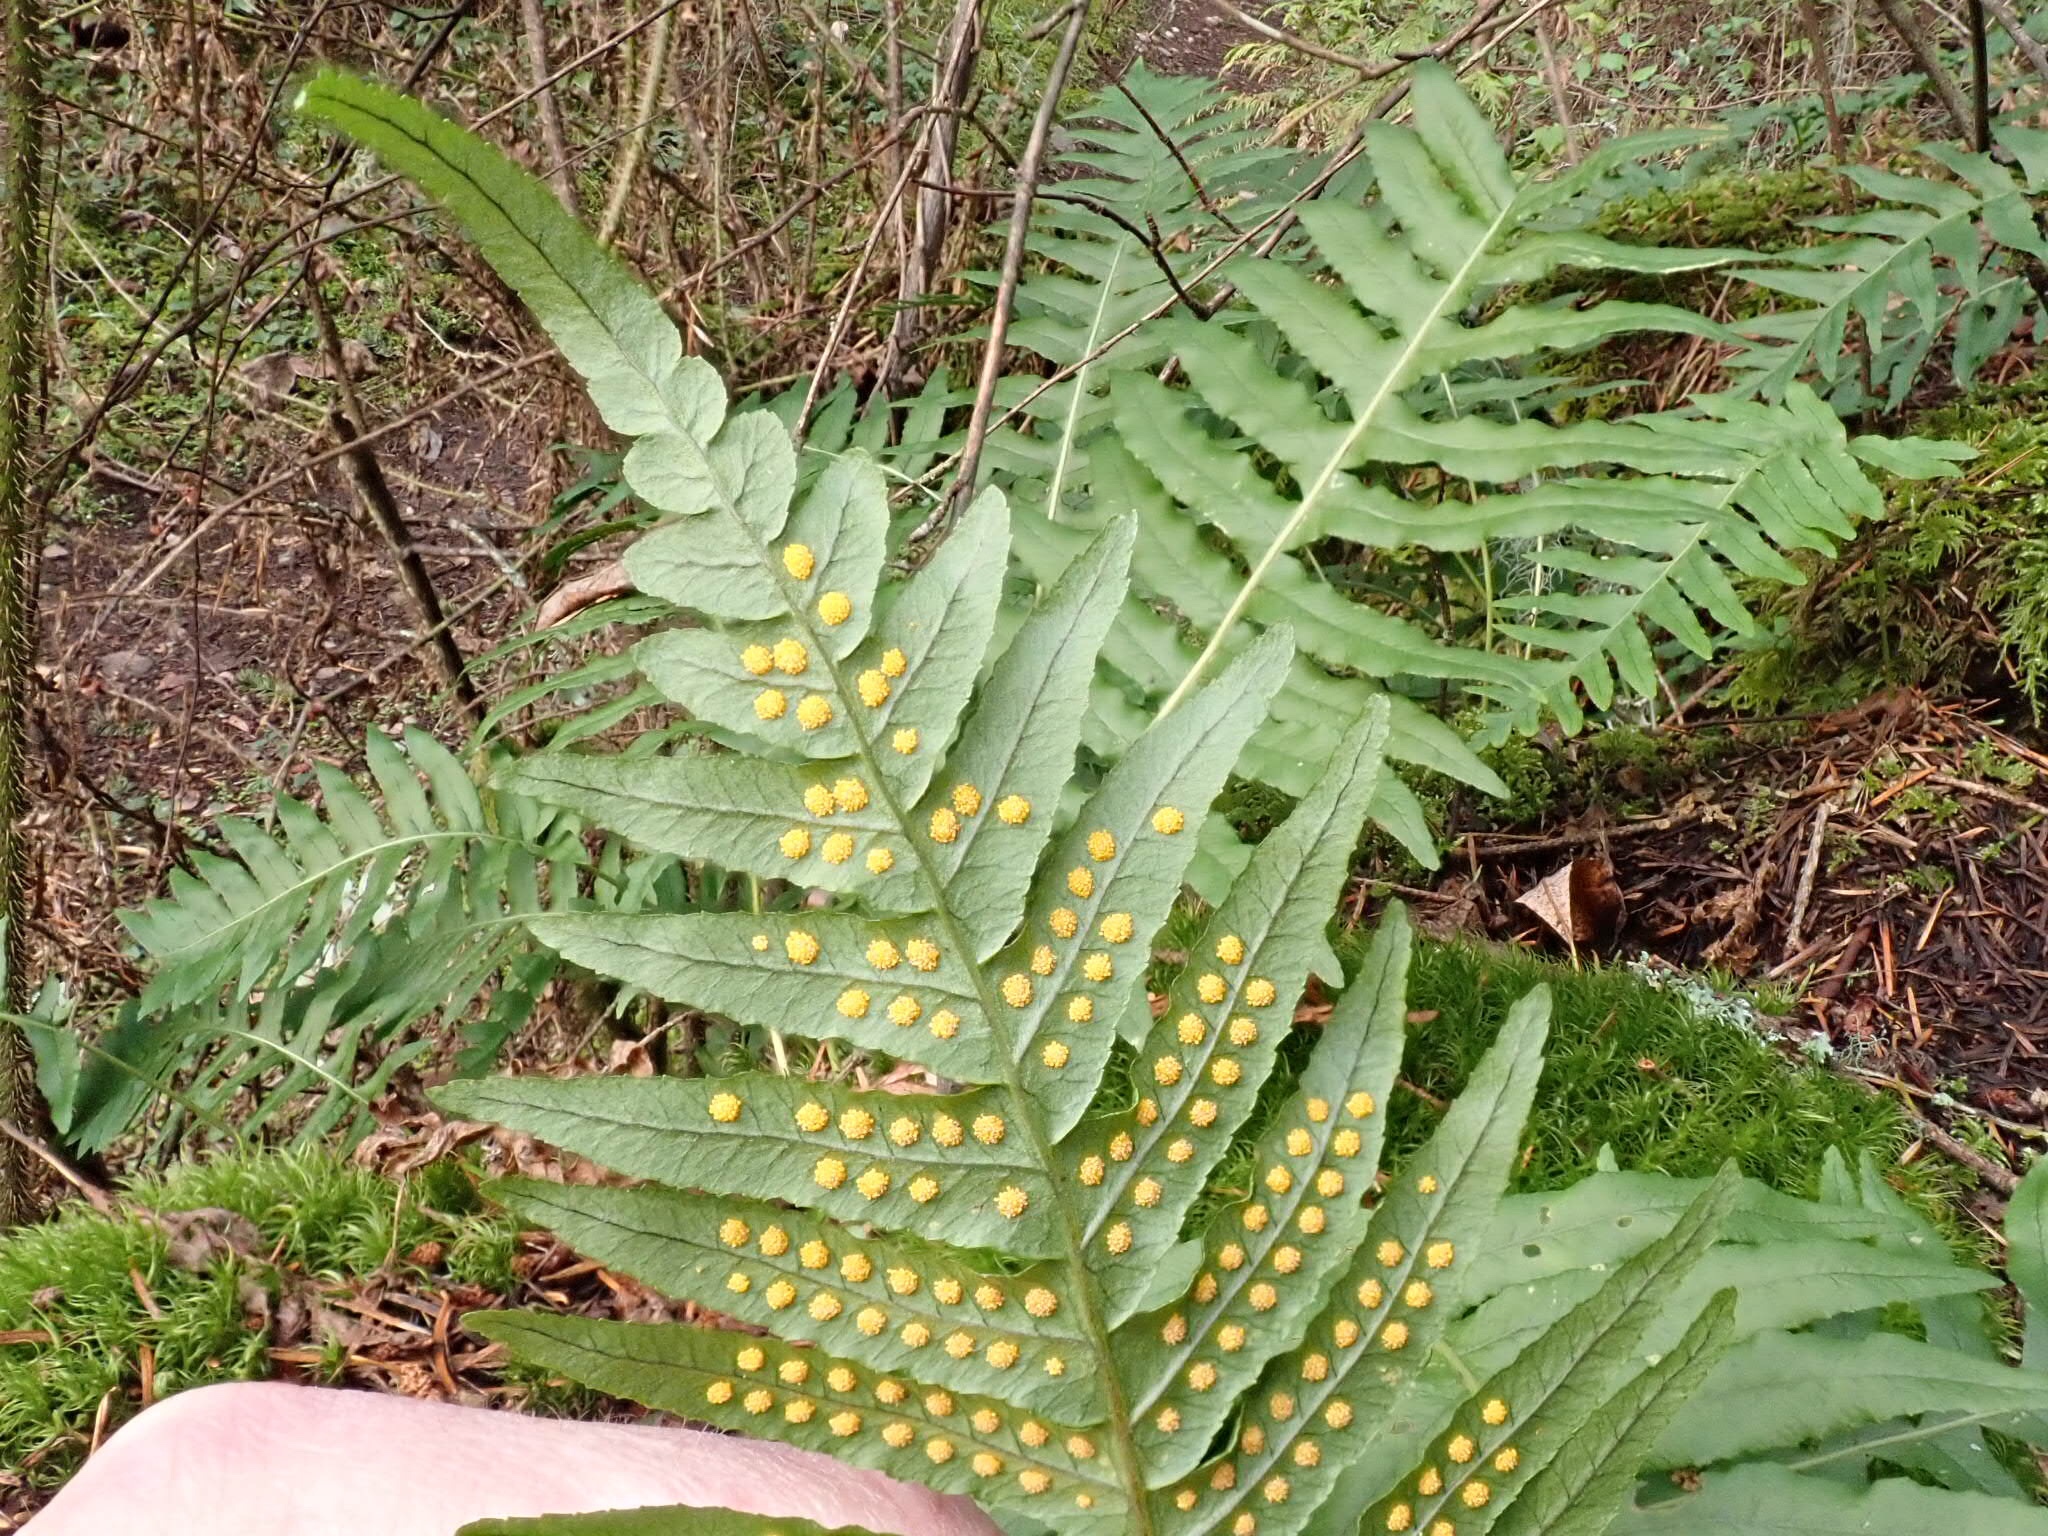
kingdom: Plantae
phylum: Tracheophyta
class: Polypodiopsida
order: Polypodiales
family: Polypodiaceae
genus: Polypodium
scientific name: Polypodium glycyrrhiza
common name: Licorice fern
